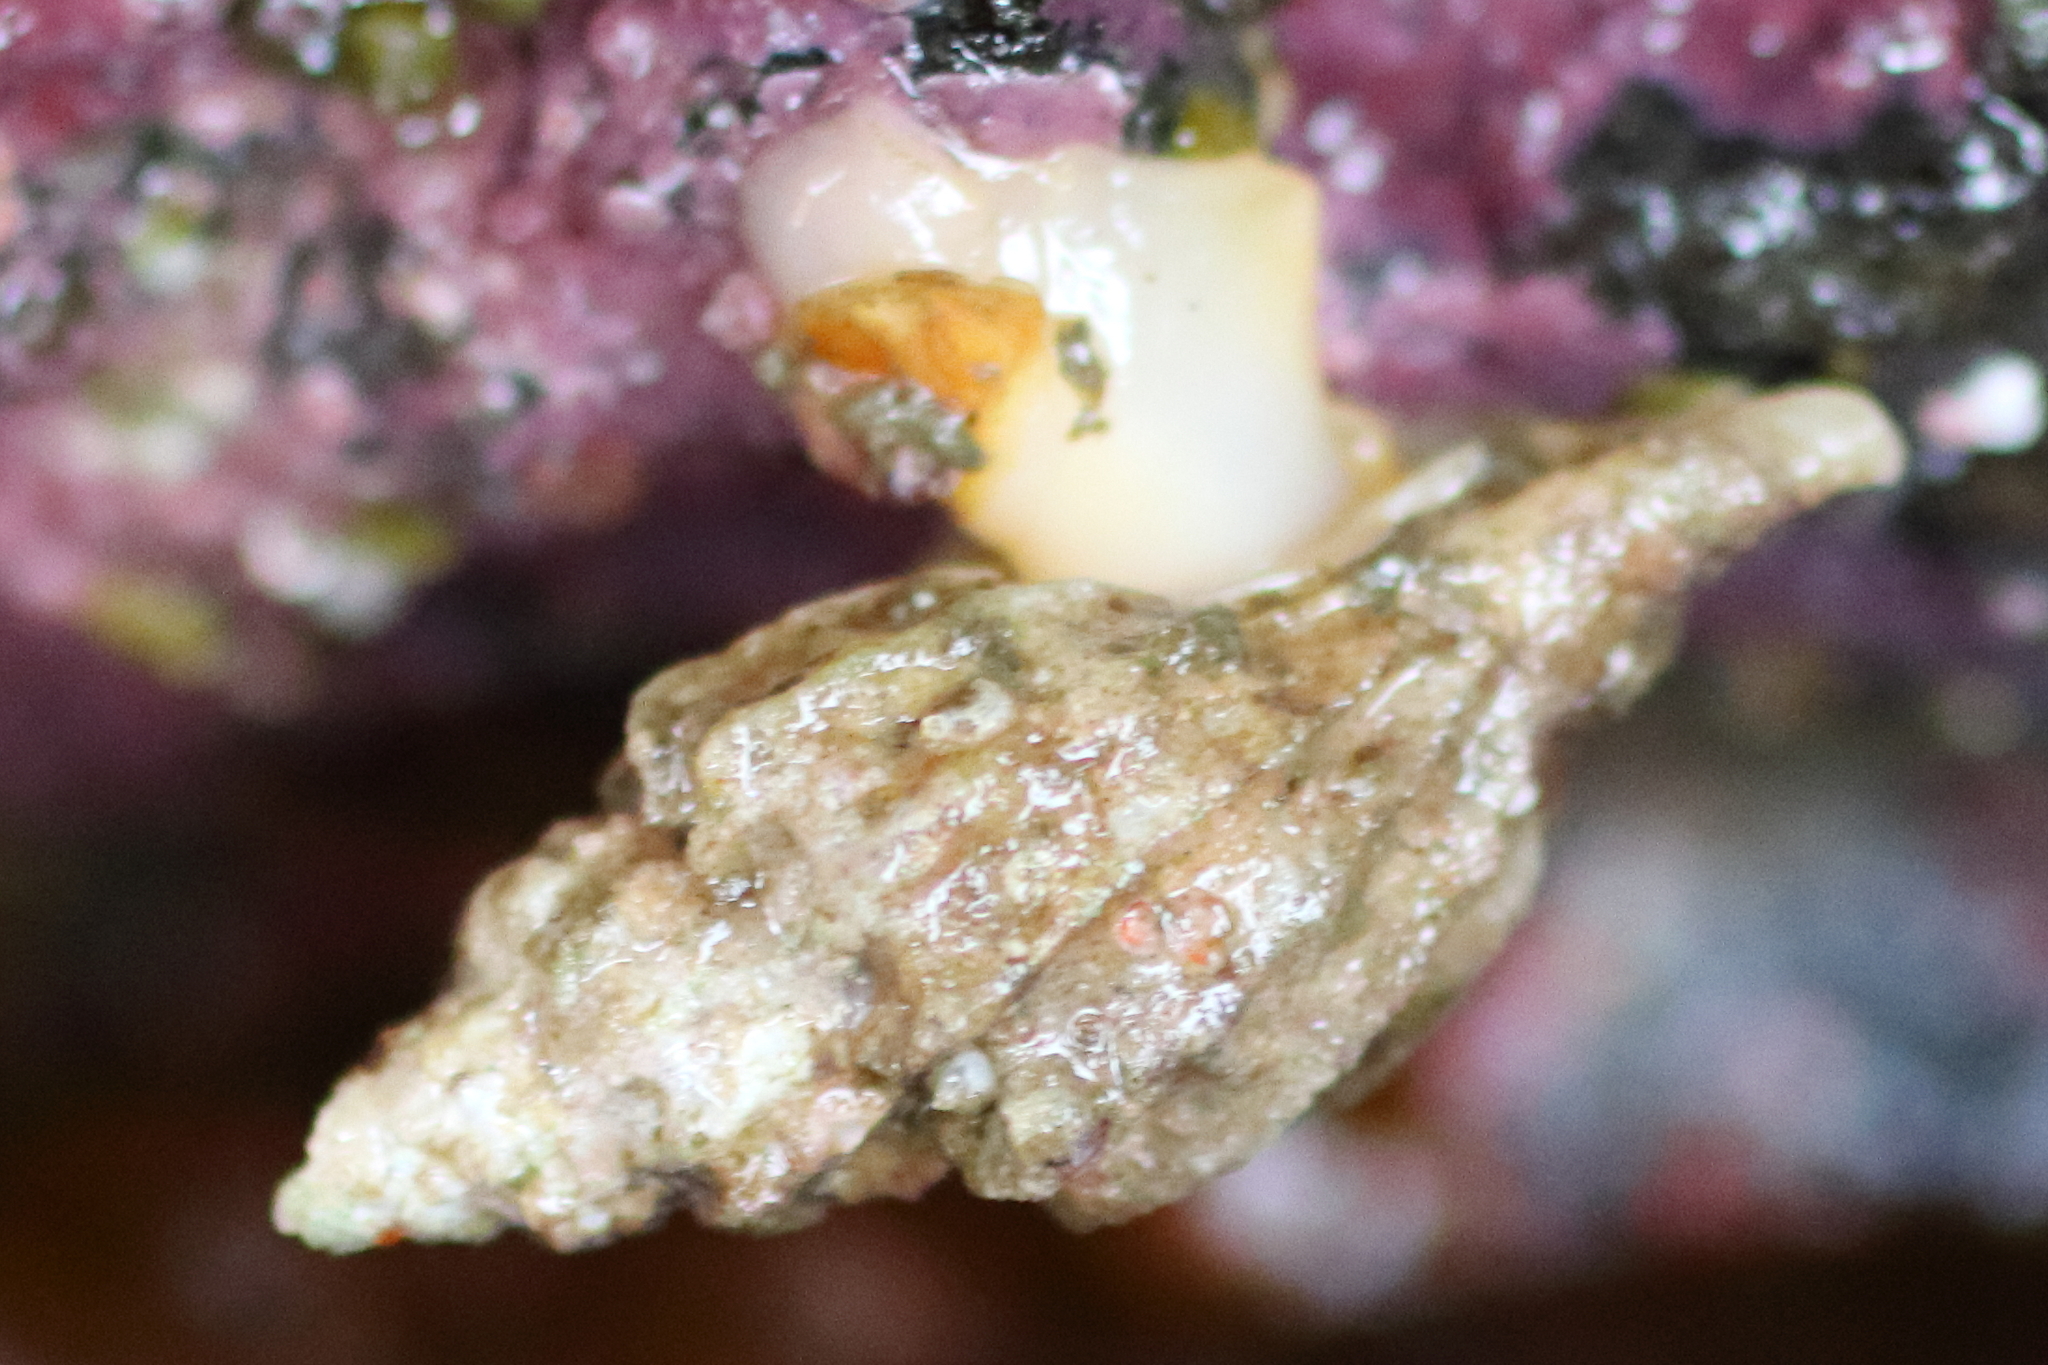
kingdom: Animalia
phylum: Mollusca
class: Gastropoda
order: Neogastropoda
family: Muricidae
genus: Scabrotrophon
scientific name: Scabrotrophon maltzani
